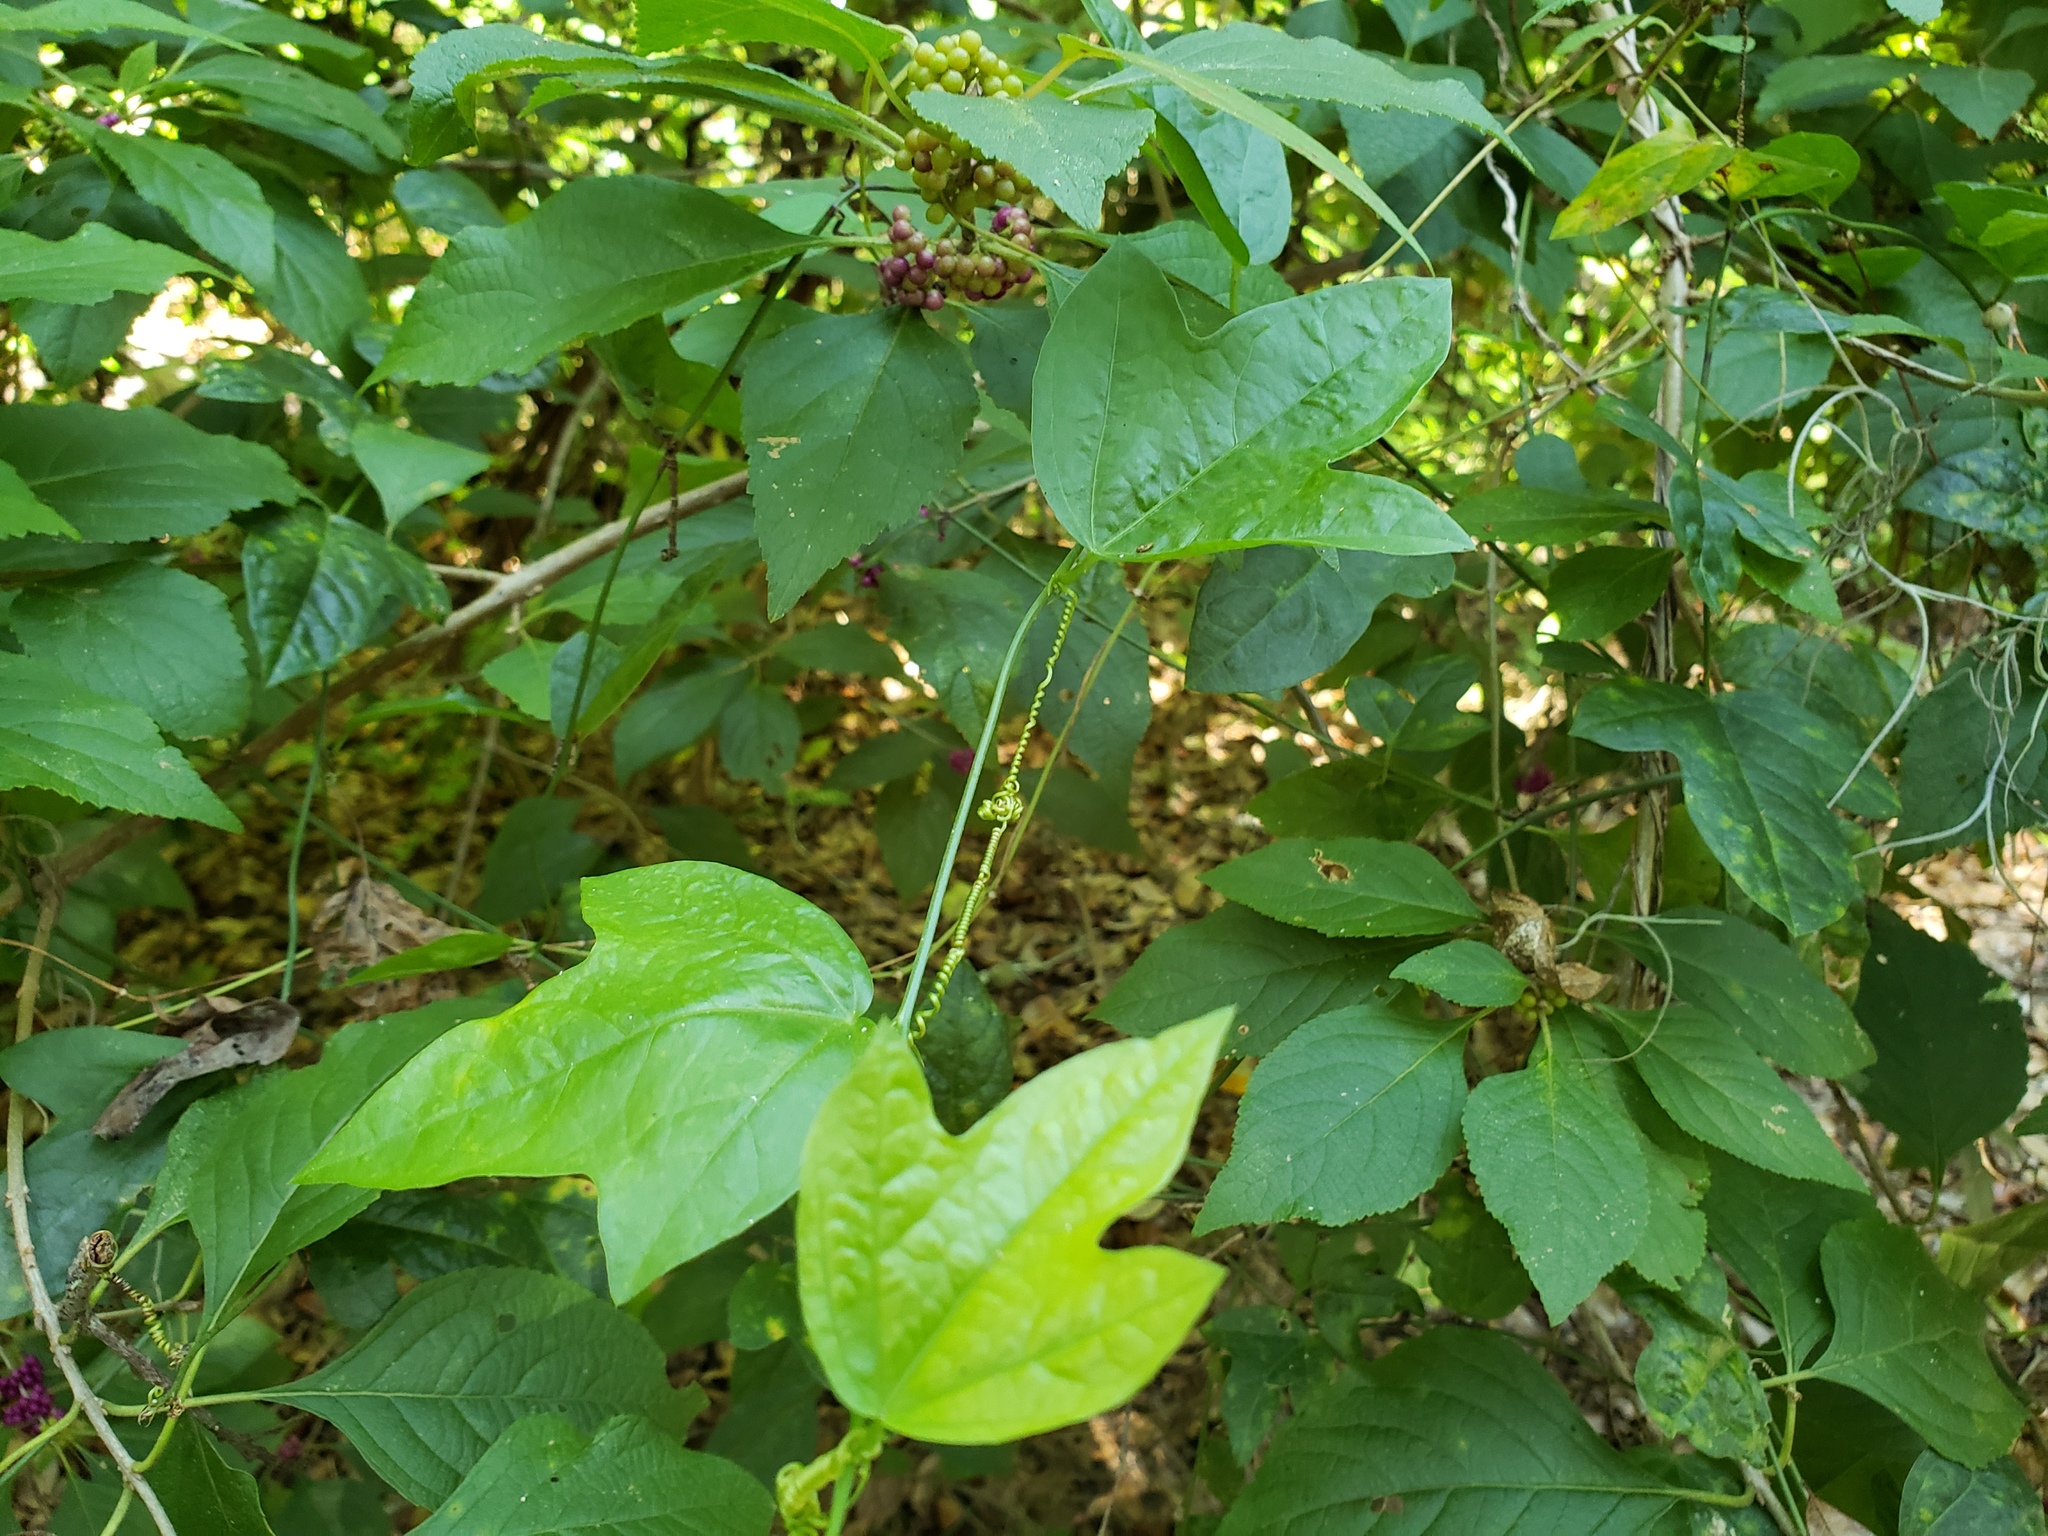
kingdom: Plantae
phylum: Tracheophyta
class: Magnoliopsida
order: Malpighiales
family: Passifloraceae
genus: Passiflora
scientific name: Passiflora pallida
